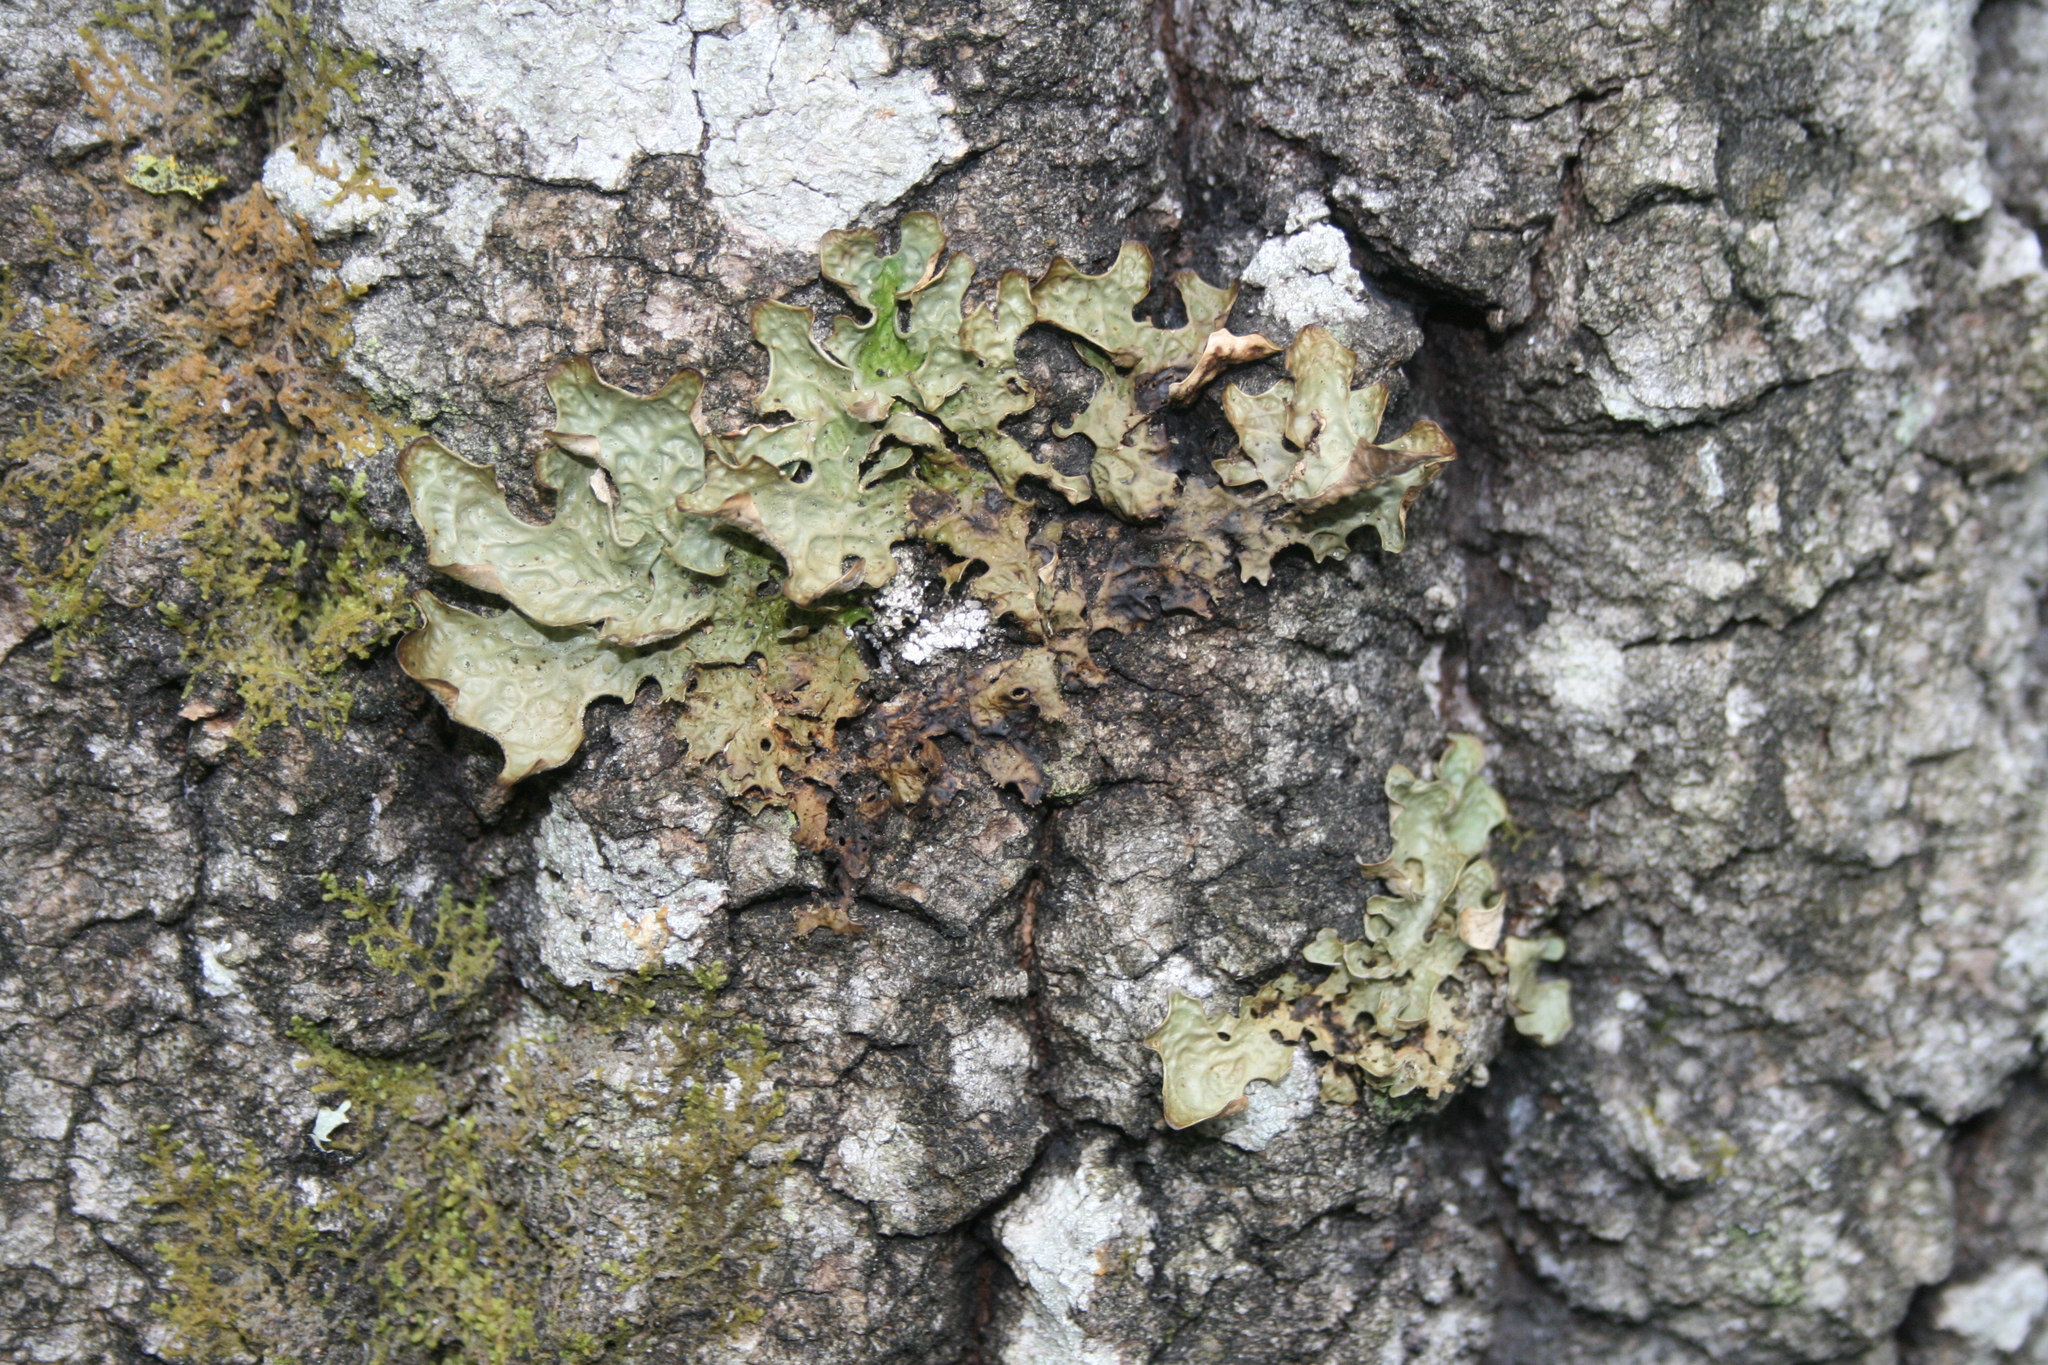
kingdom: Fungi
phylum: Ascomycota
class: Lecanoromycetes
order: Peltigerales
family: Lobariaceae
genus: Lobaria
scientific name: Lobaria pulmonaria
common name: Lungwort
